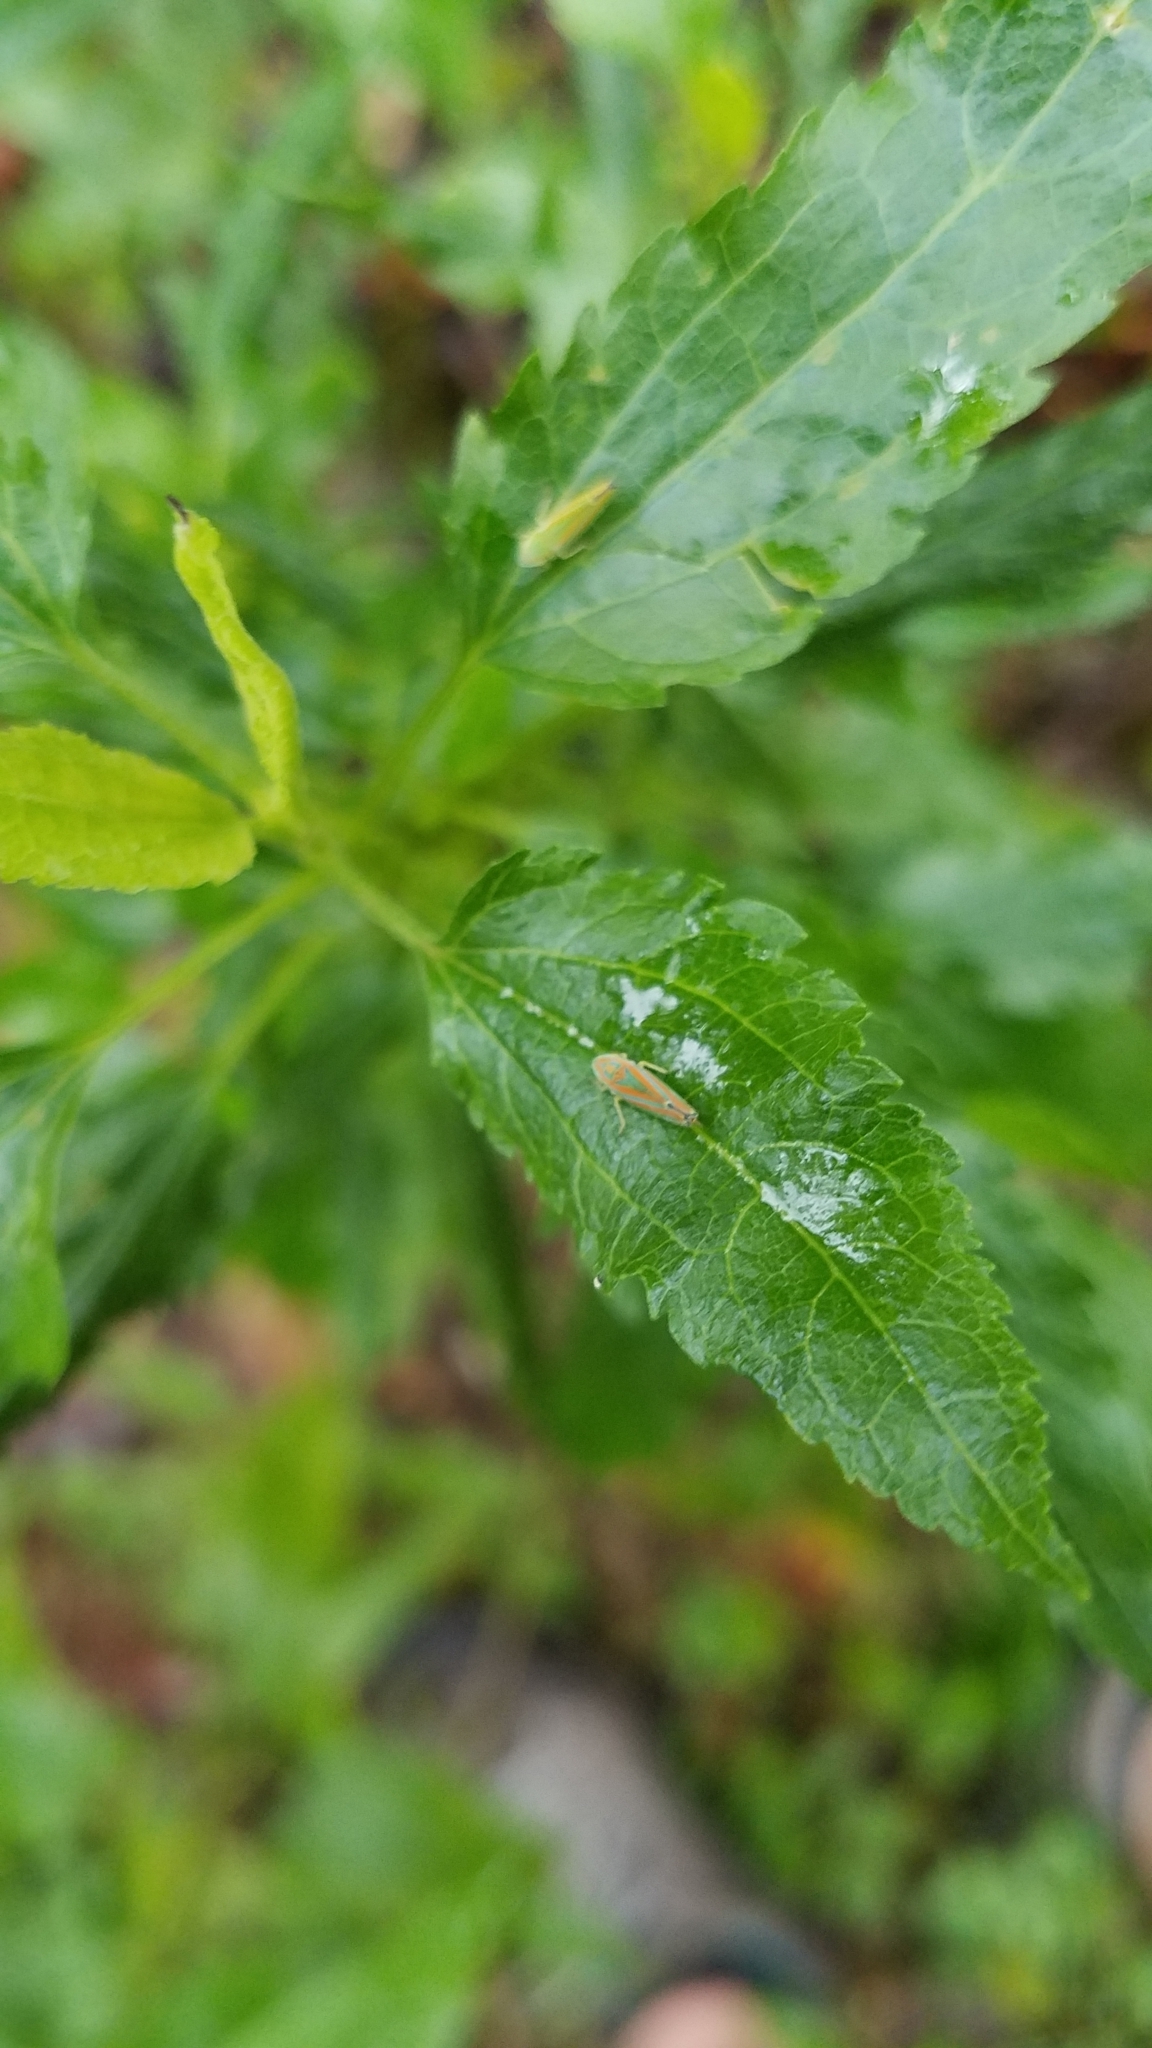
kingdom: Animalia
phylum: Arthropoda
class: Insecta
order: Hemiptera
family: Cicadellidae
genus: Graphocephala
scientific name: Graphocephala versuta
